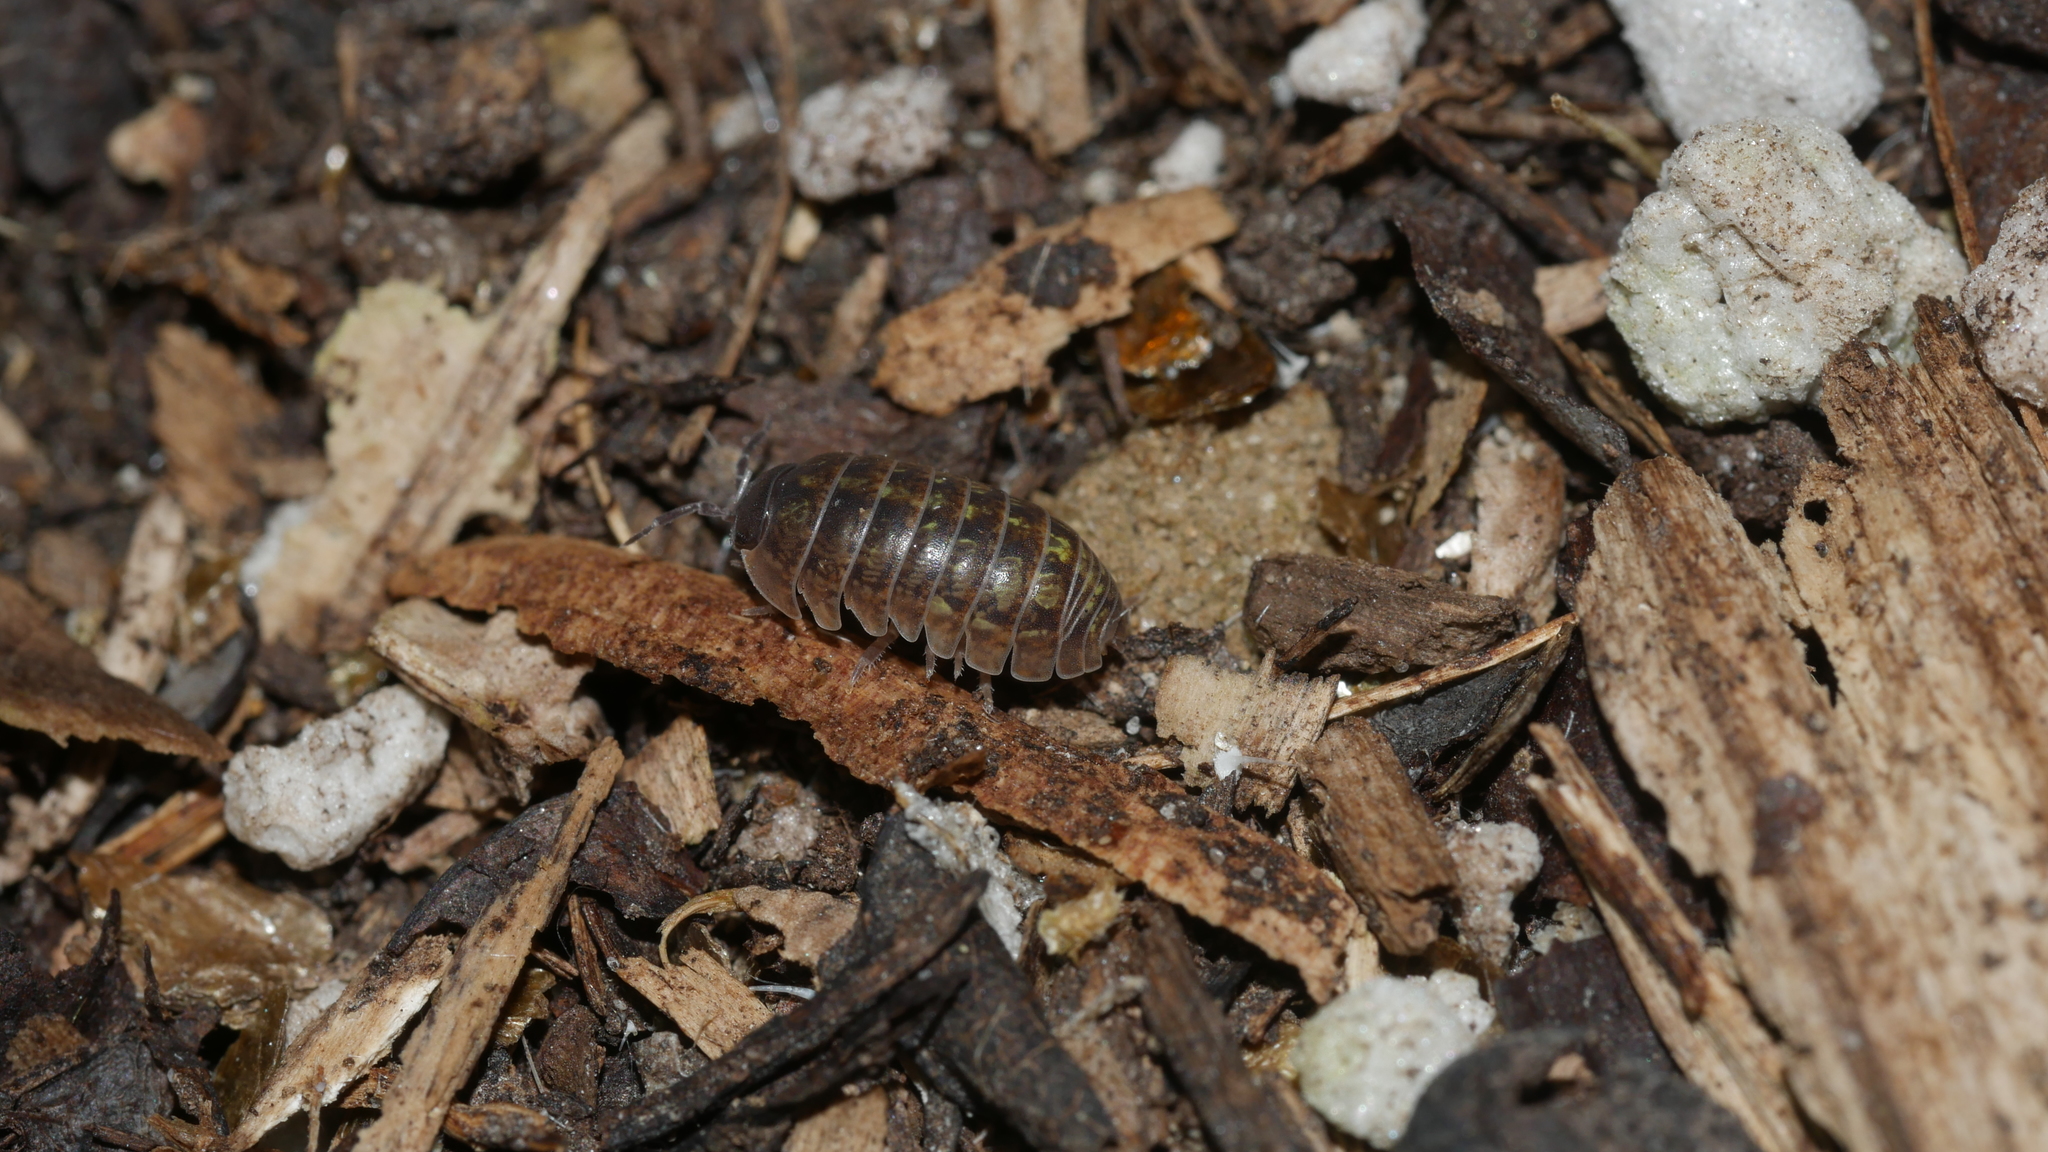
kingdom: Animalia
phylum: Arthropoda
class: Malacostraca
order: Isopoda
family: Armadillidiidae
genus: Armadillidium
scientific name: Armadillidium vulgare
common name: Common pill woodlouse
